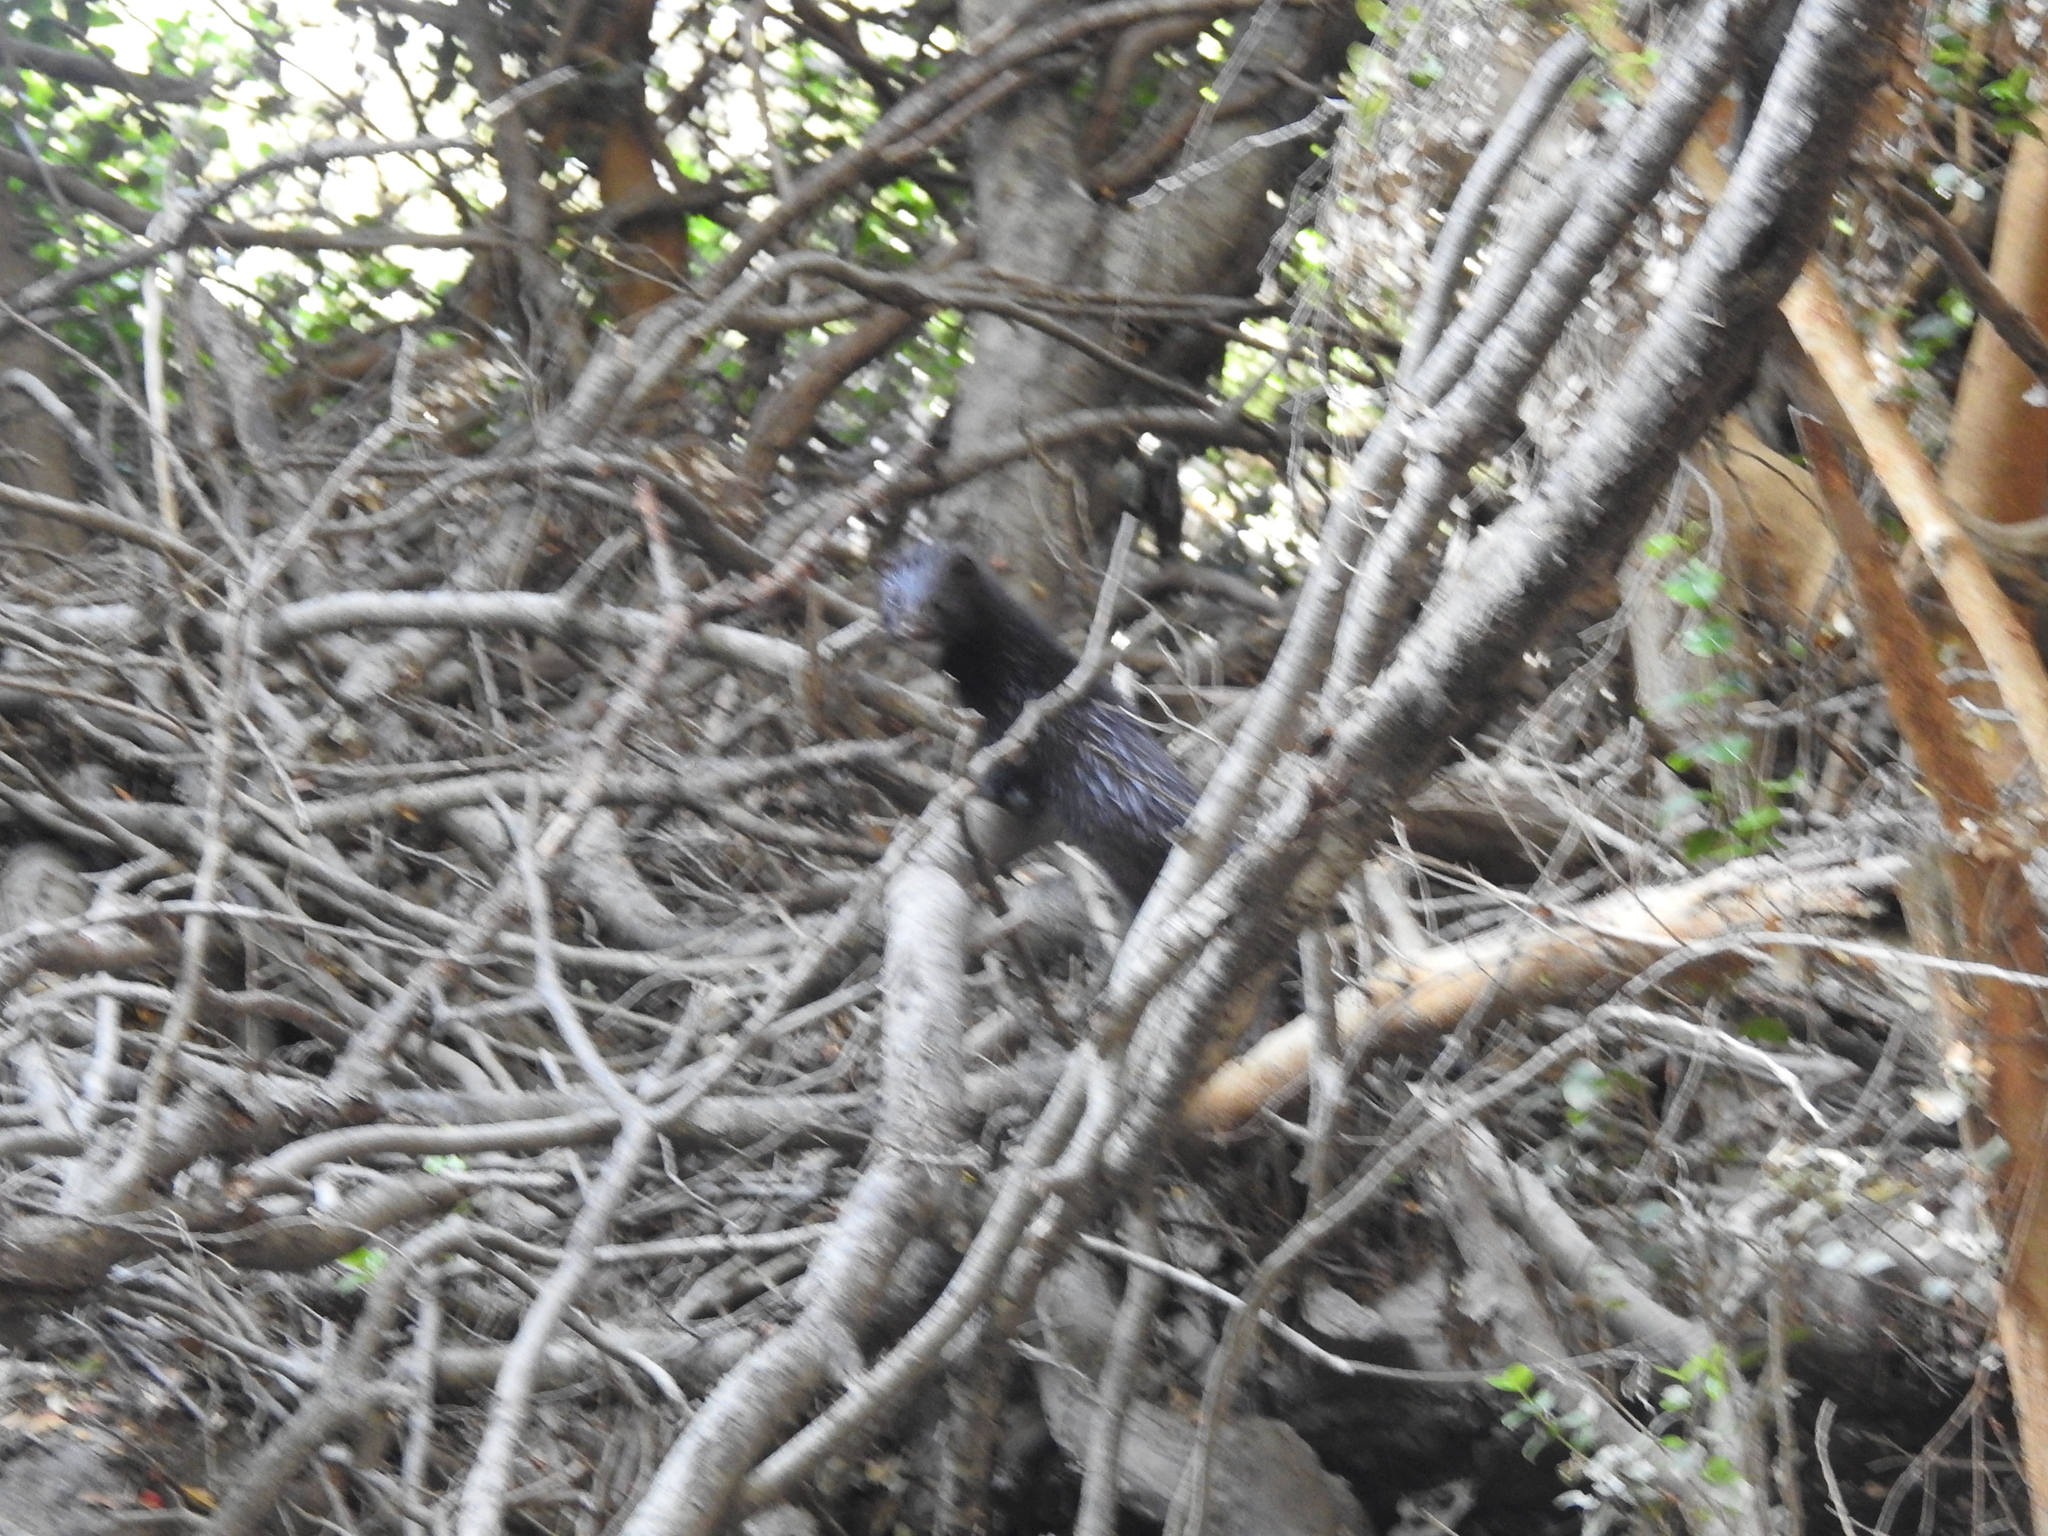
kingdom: Animalia
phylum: Chordata
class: Mammalia
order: Carnivora
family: Mustelidae
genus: Mustela
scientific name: Mustela
